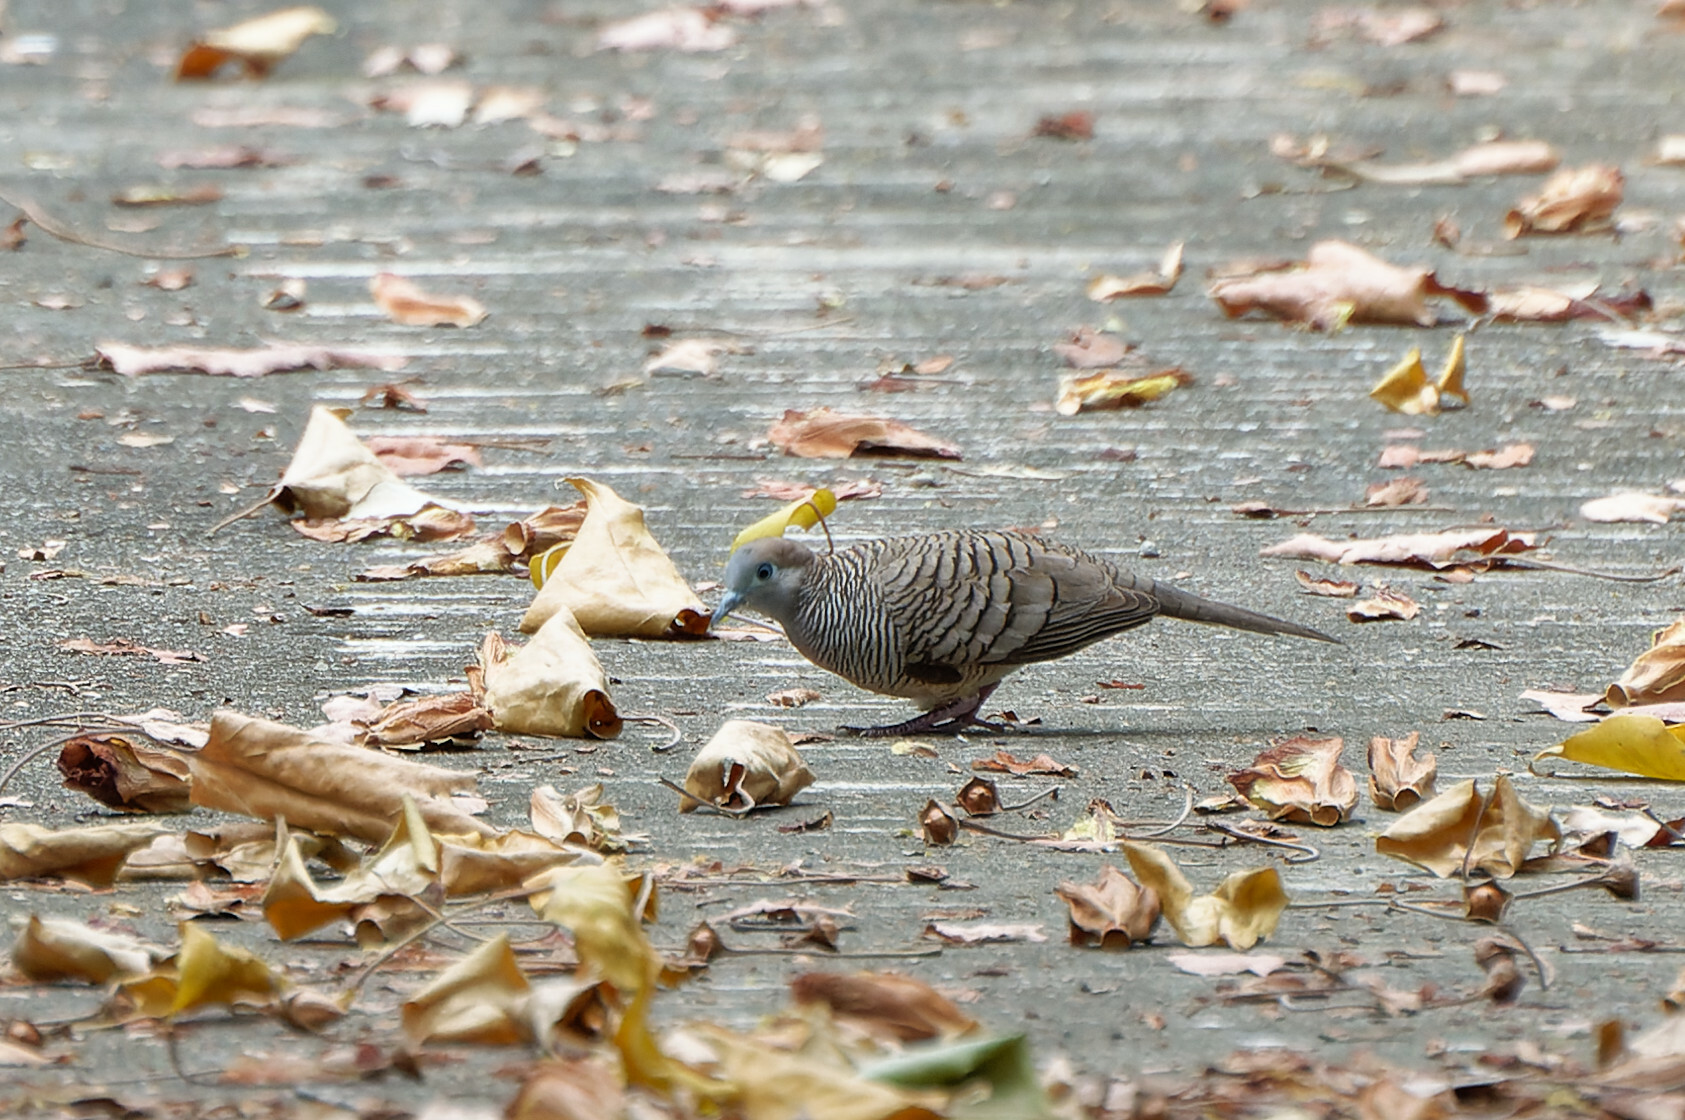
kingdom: Animalia
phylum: Chordata
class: Aves
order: Columbiformes
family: Columbidae
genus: Geopelia
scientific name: Geopelia striata
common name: Zebra dove
